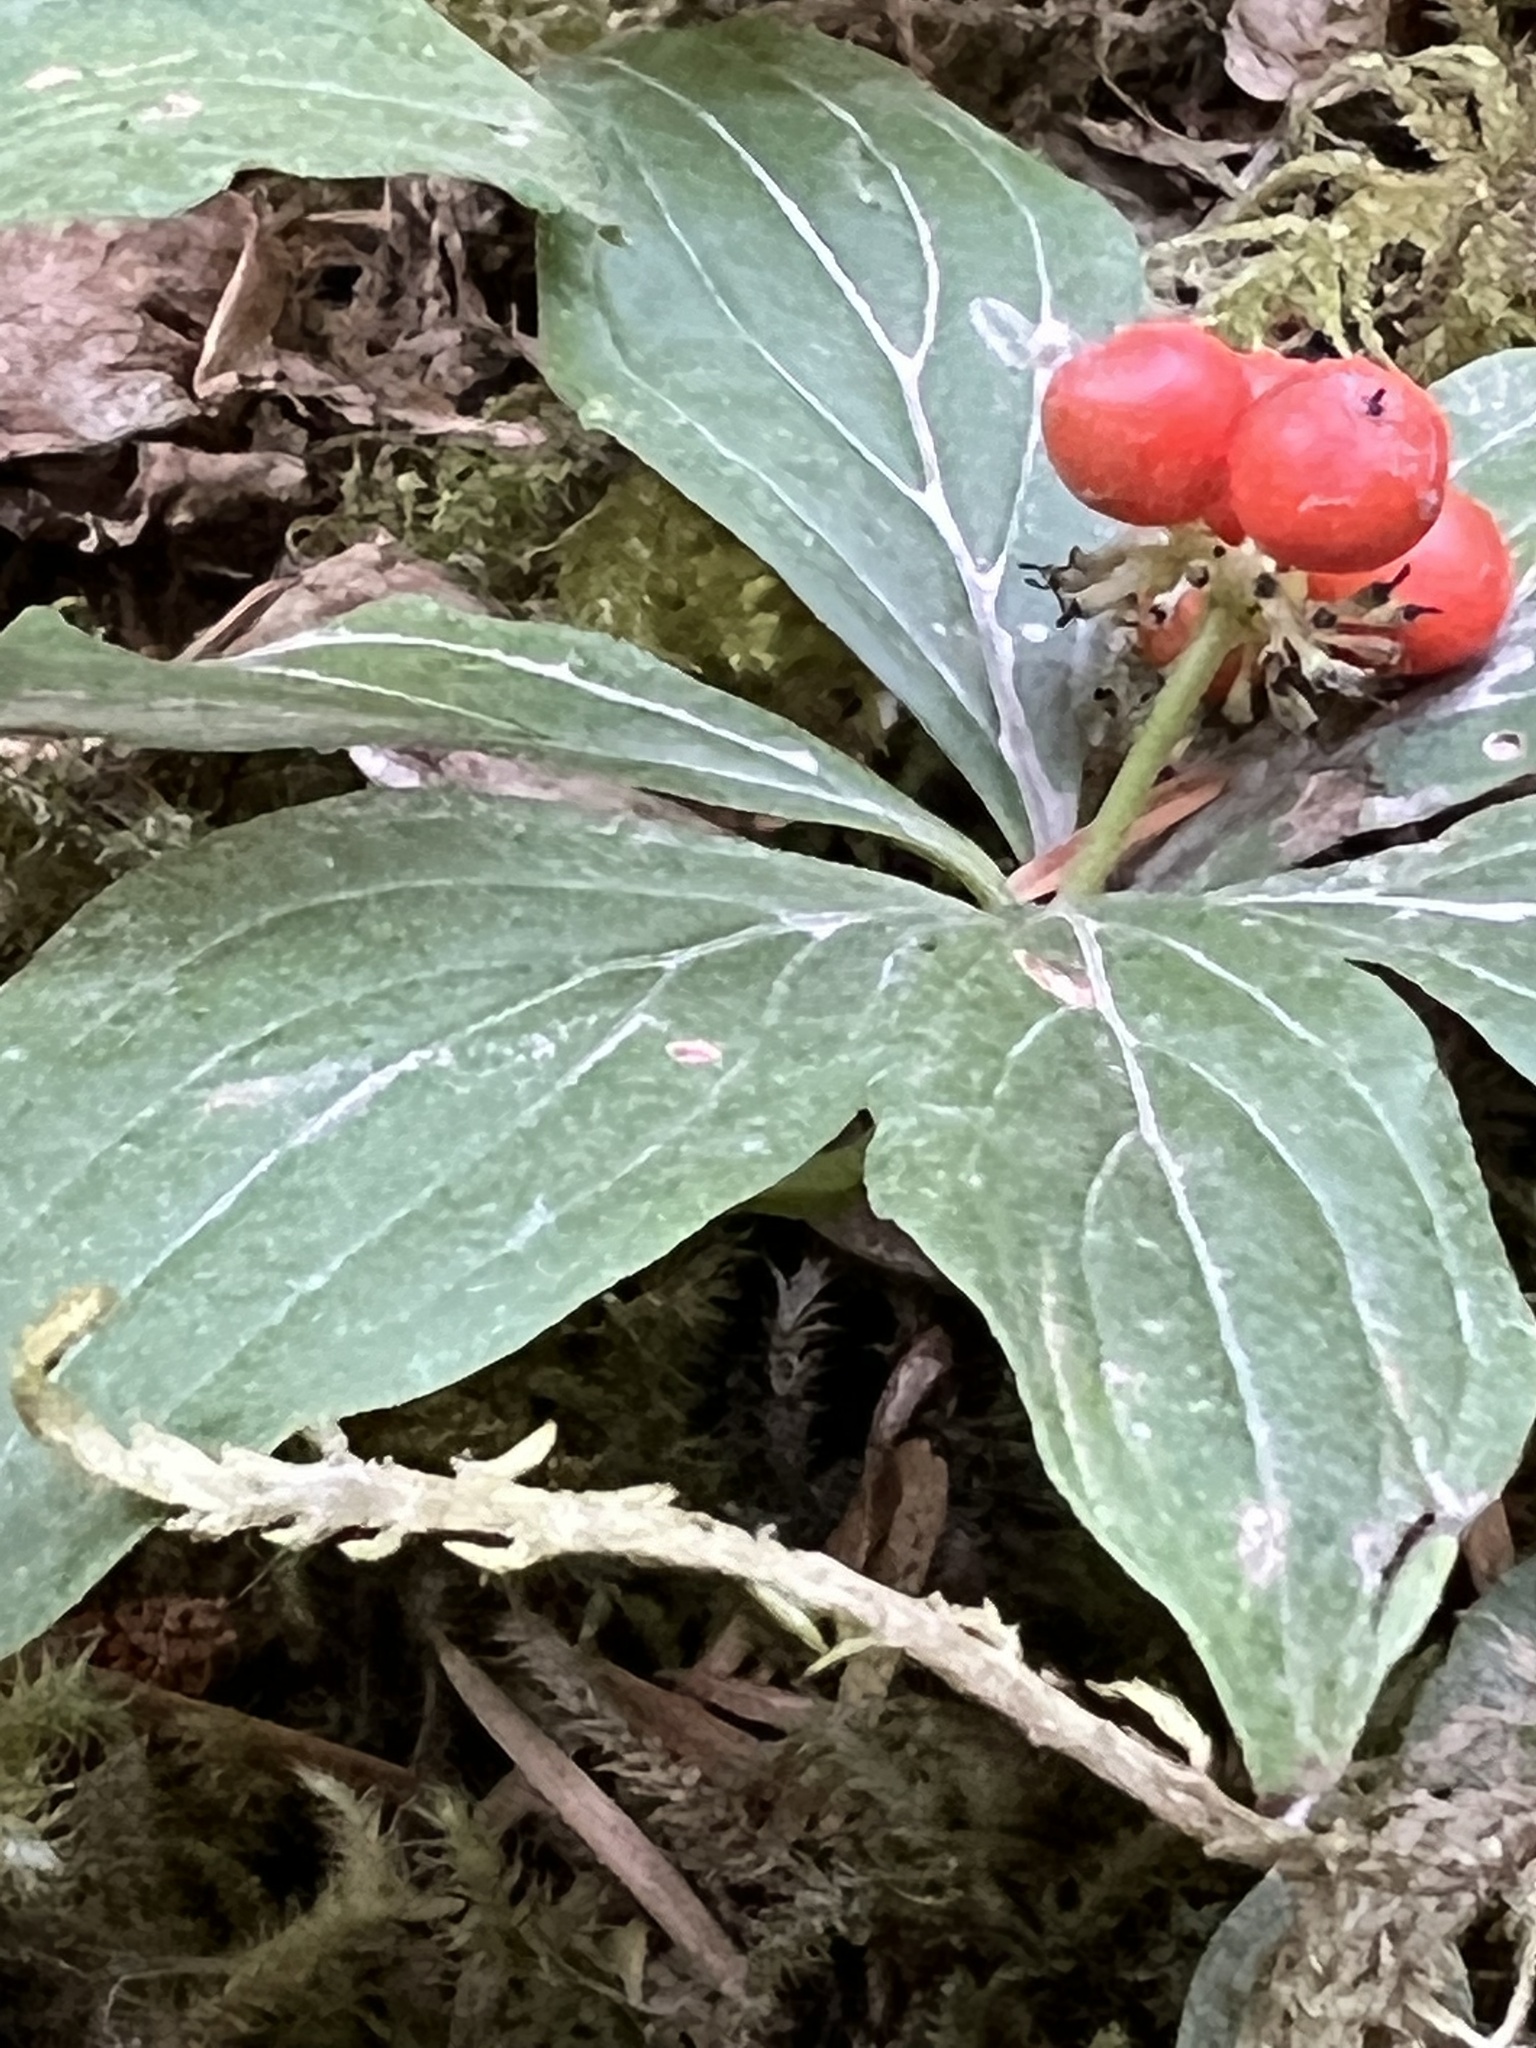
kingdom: Plantae
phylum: Tracheophyta
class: Magnoliopsida
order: Cornales
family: Cornaceae
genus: Cornus
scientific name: Cornus unalaschkensis
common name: Alaska bunchberry
